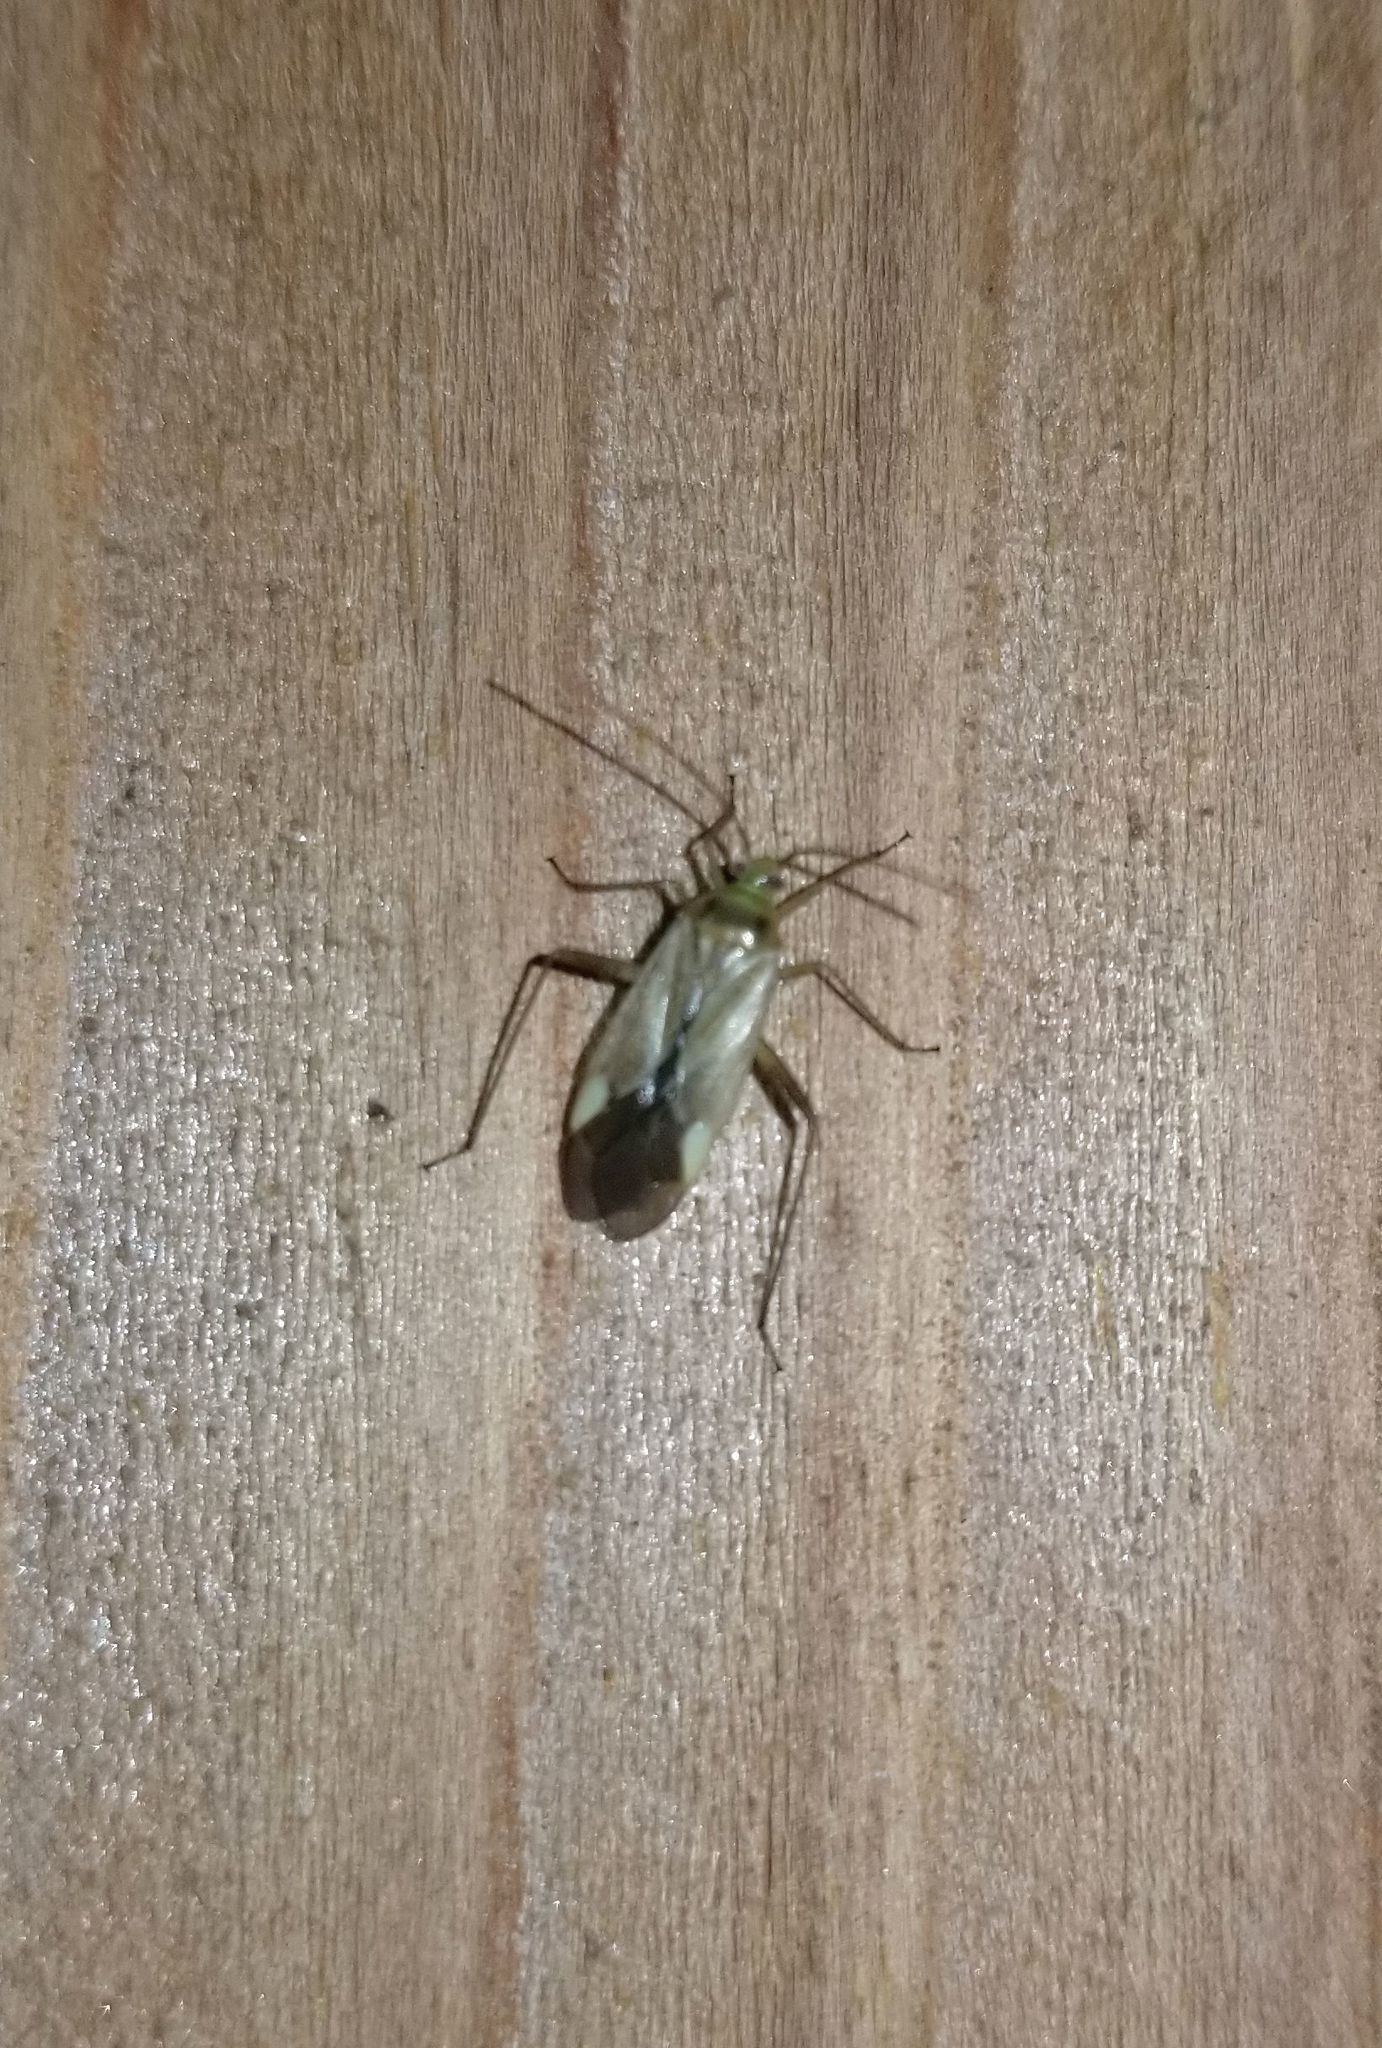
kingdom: Animalia
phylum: Arthropoda
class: Insecta
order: Hemiptera
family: Miridae
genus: Adelphocoris
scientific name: Adelphocoris lineolatus
